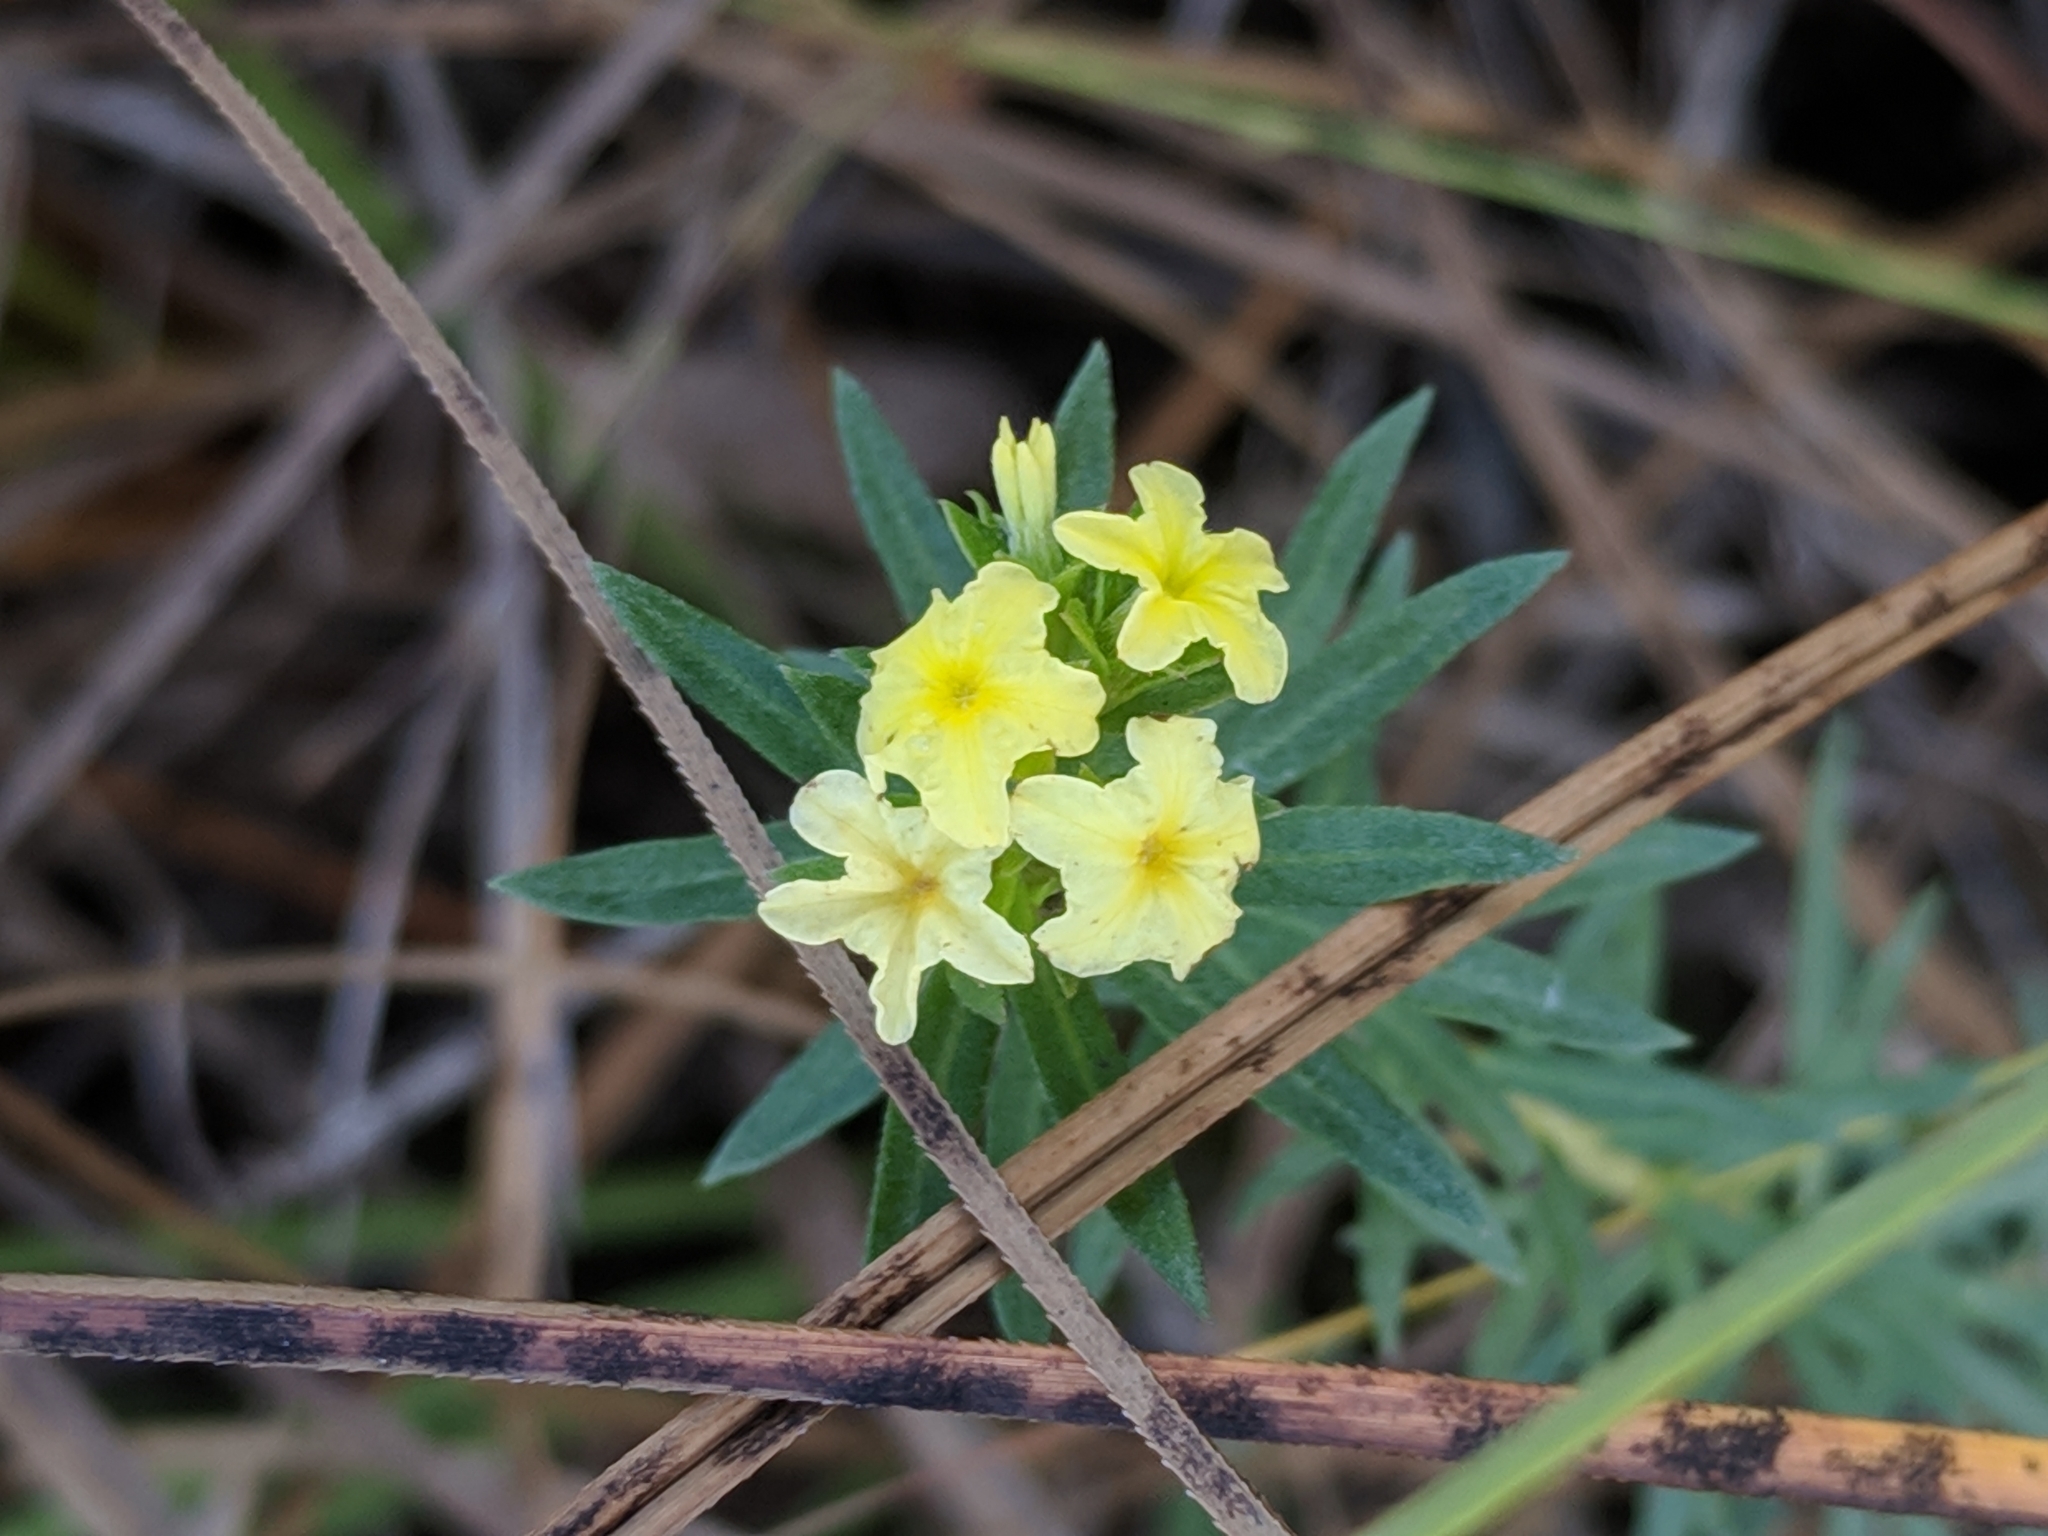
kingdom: Plantae
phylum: Tracheophyta
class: Magnoliopsida
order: Boraginales
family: Heliotropiaceae
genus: Euploca
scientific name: Euploca polyphylla
